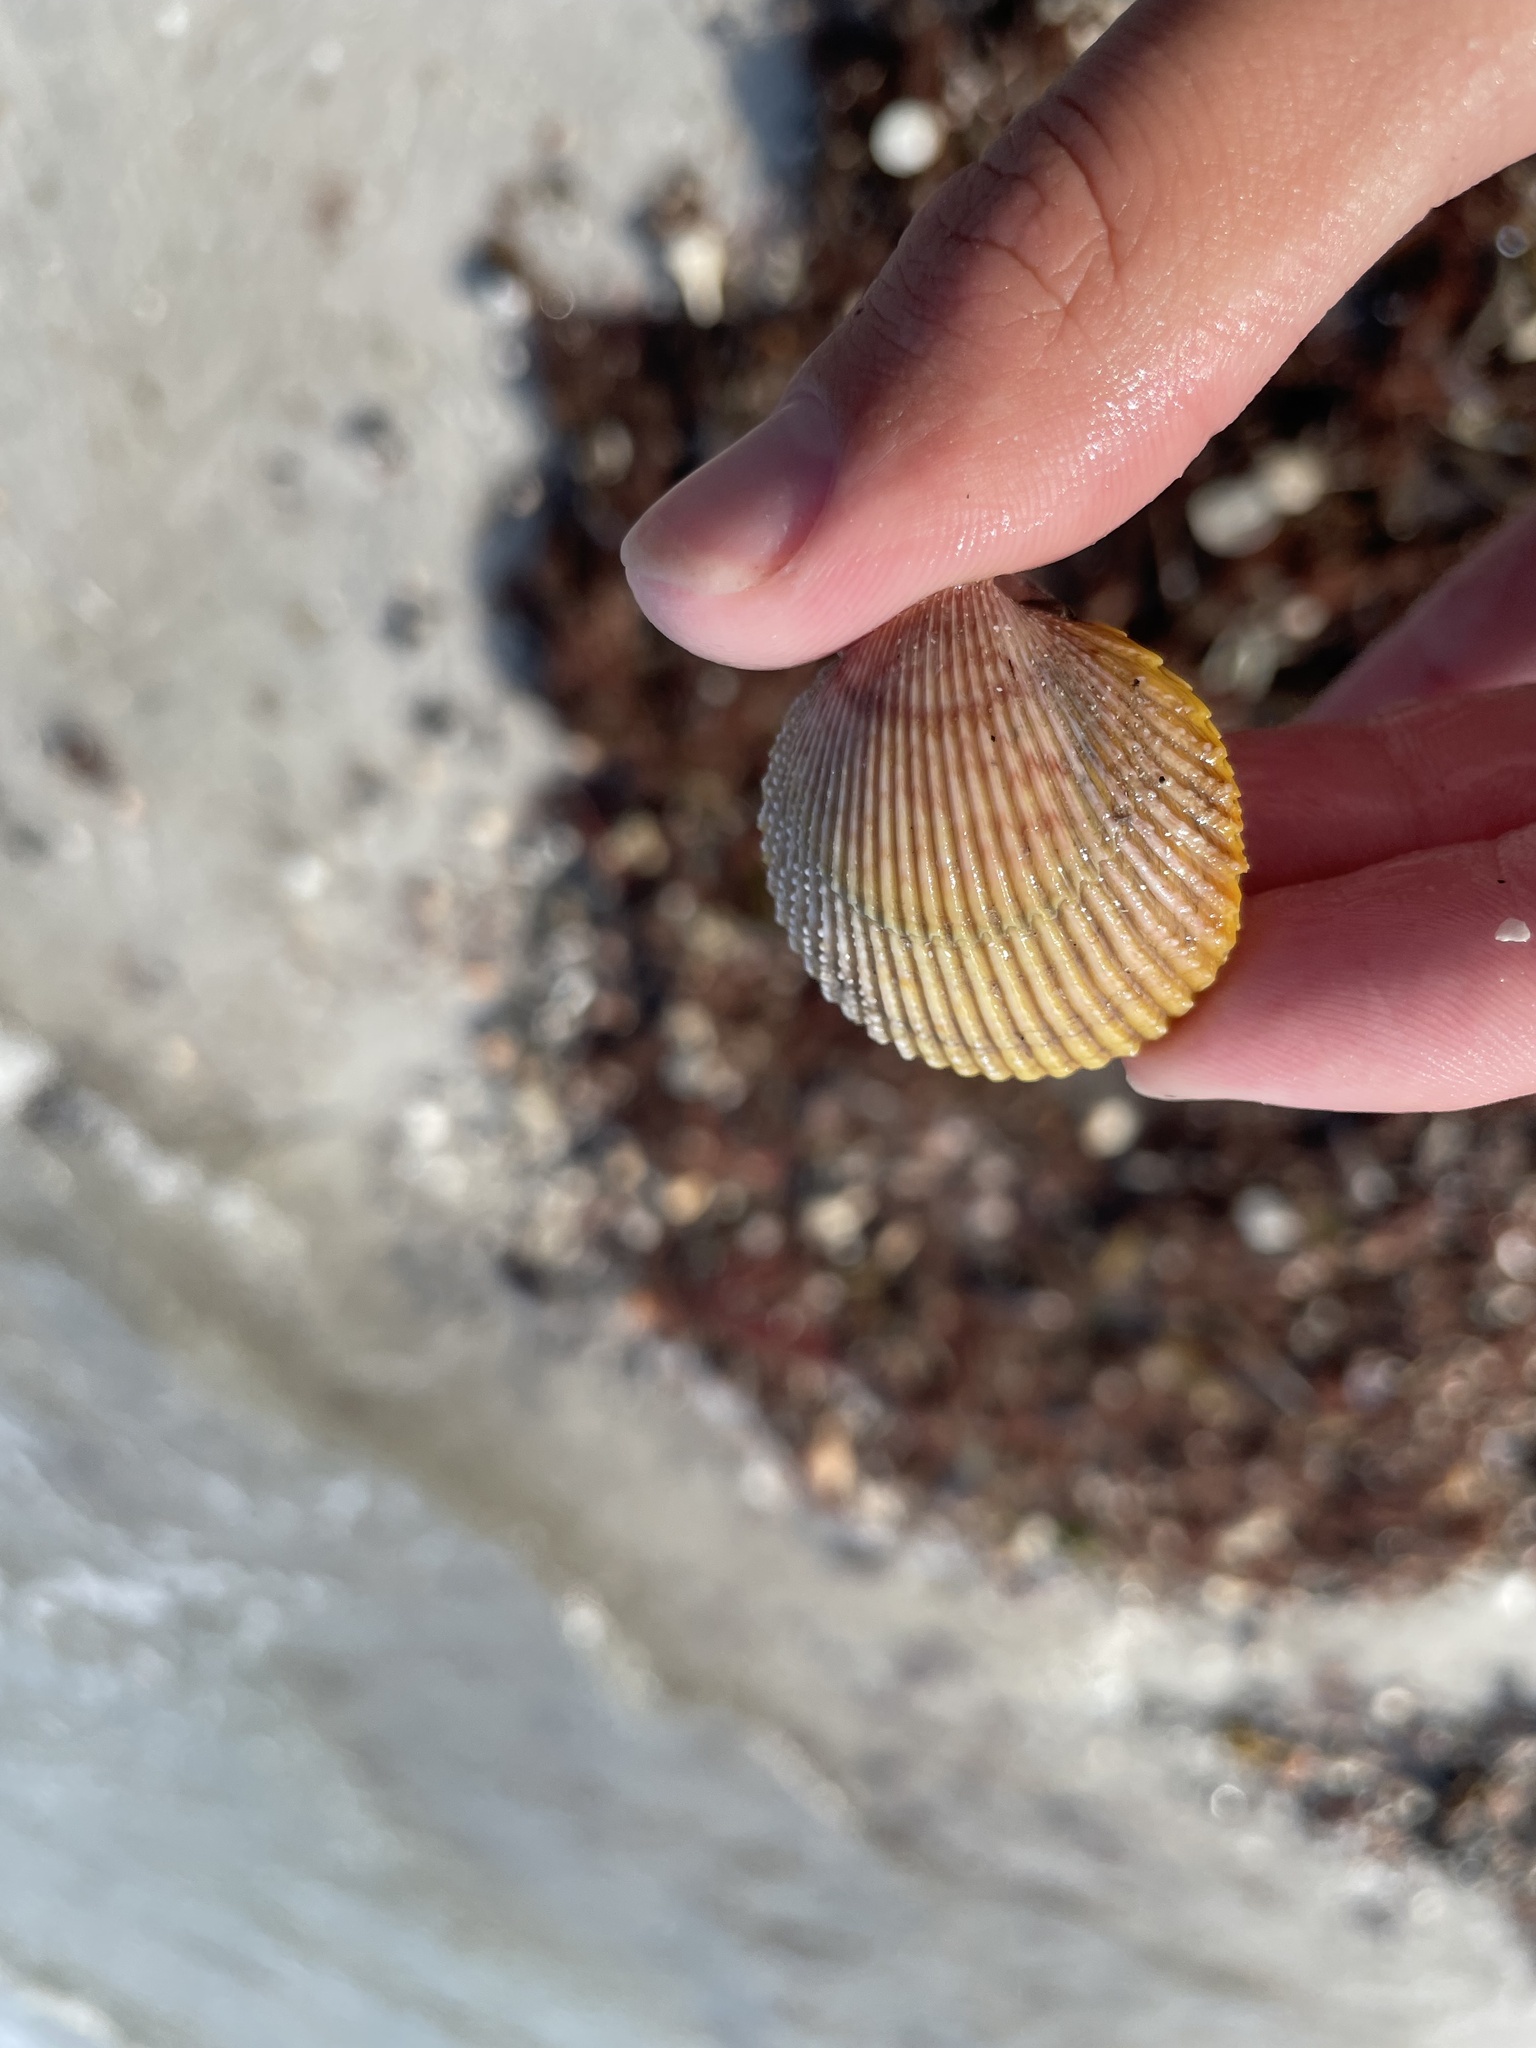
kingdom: Animalia
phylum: Mollusca
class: Bivalvia
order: Cardiida
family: Cardiidae
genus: Dallocardia
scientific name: Dallocardia muricata
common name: Yellow pricklycockle
